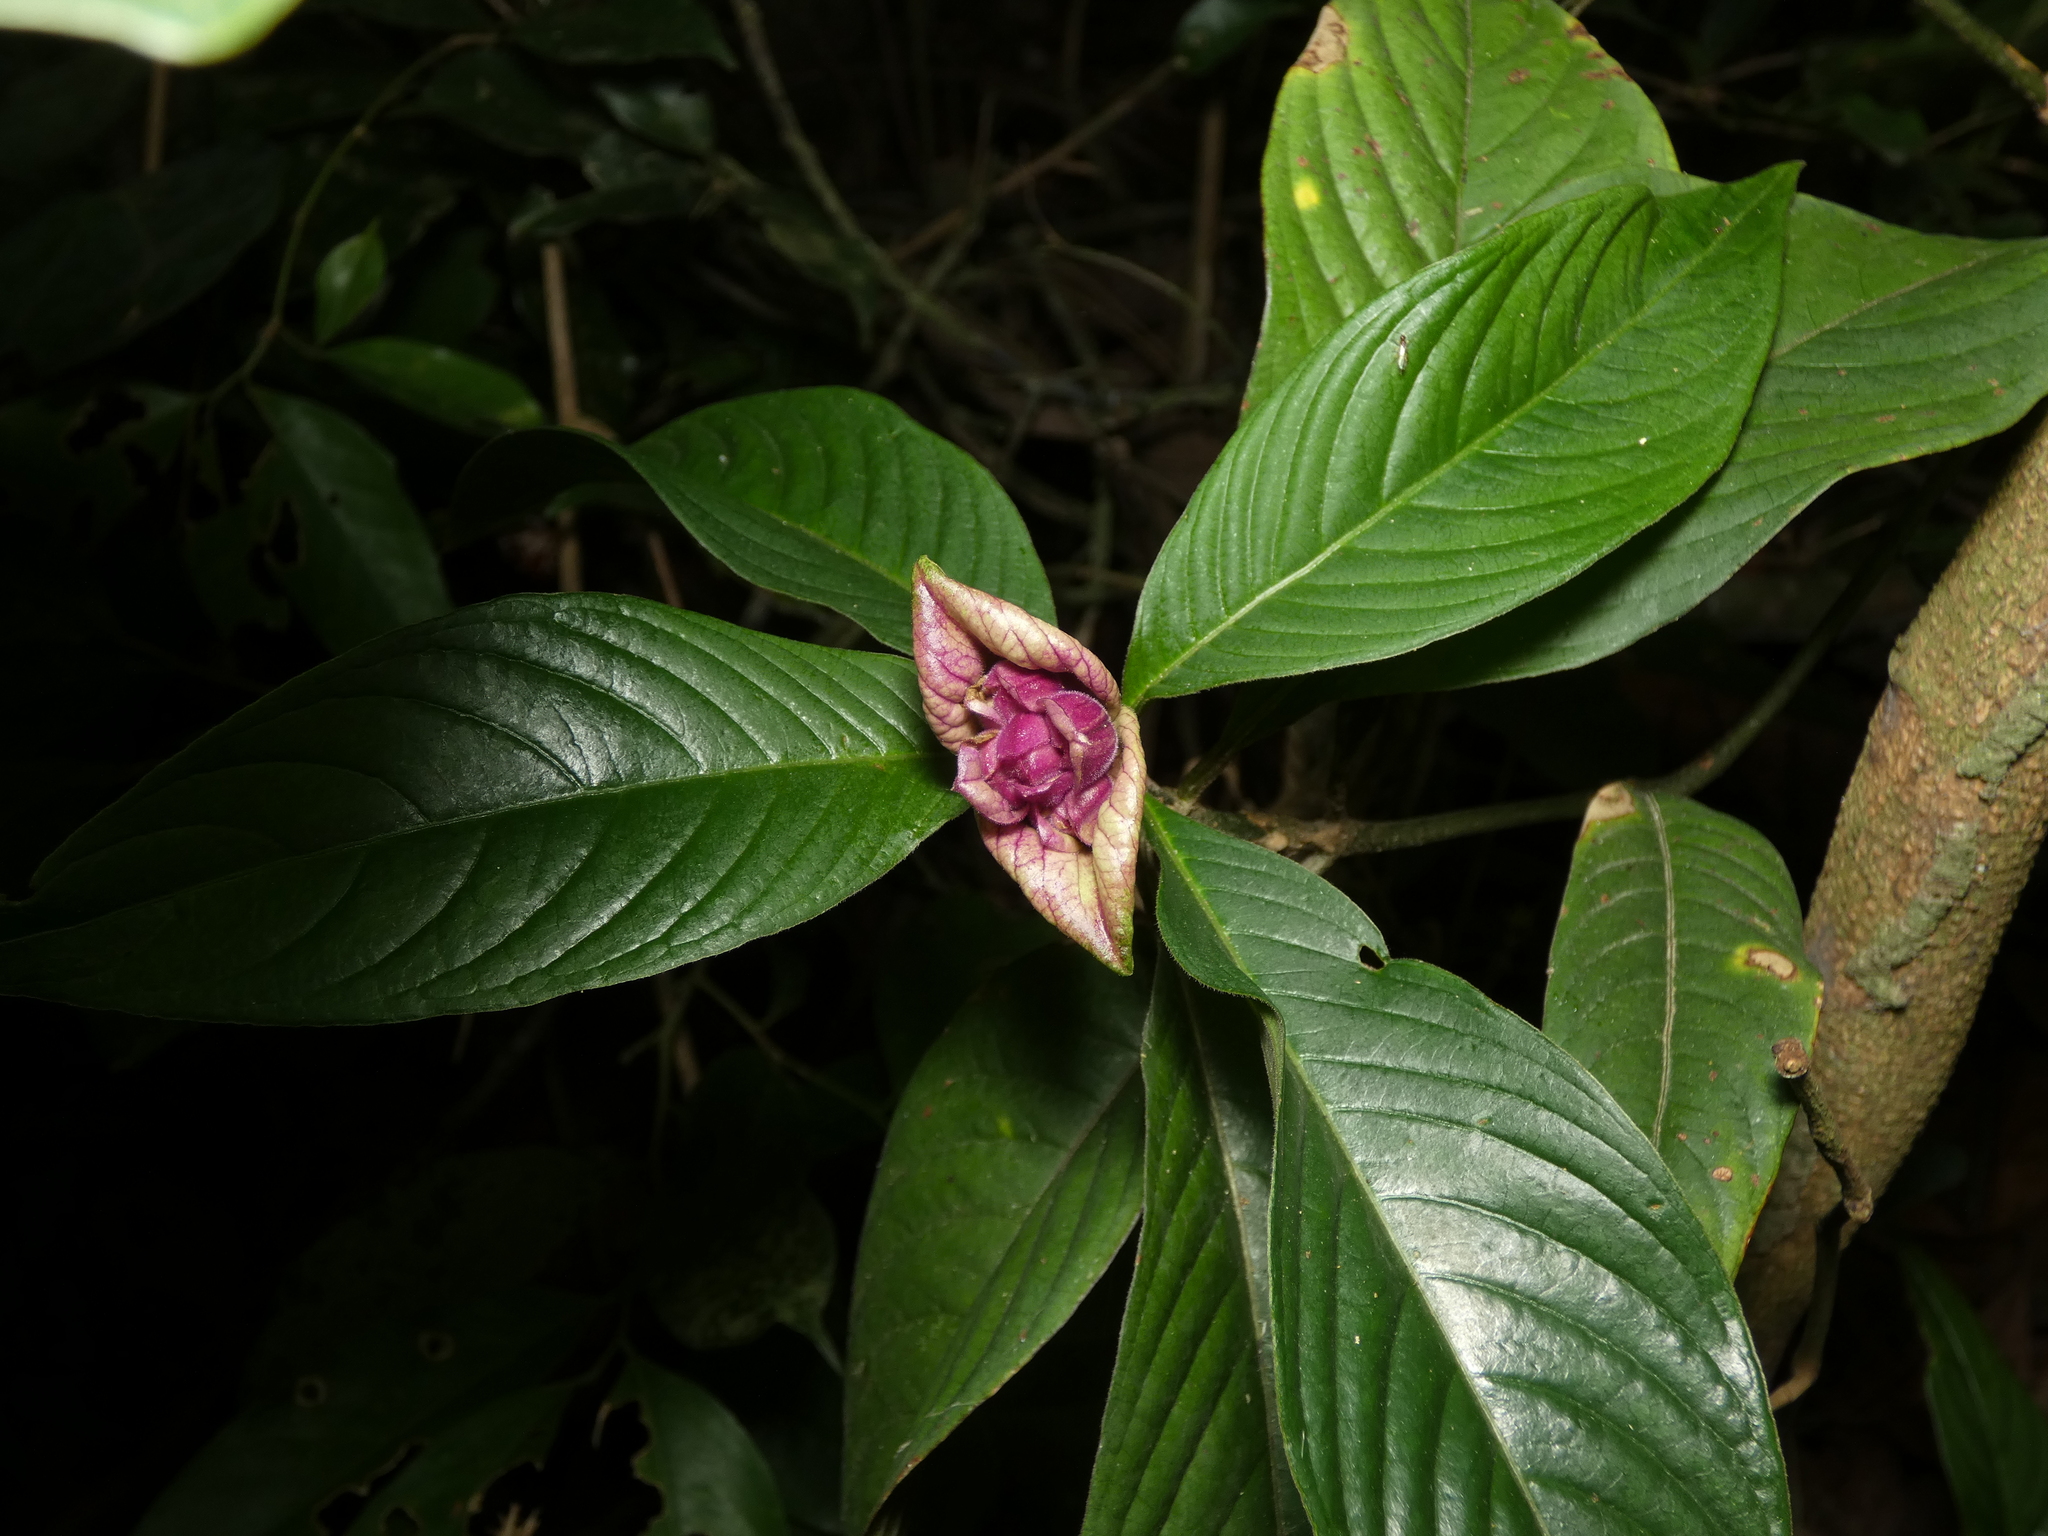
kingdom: Plantae
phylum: Tracheophyta
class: Magnoliopsida
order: Gentianales
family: Rubiaceae
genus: Palicourea
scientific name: Palicourea colorata
